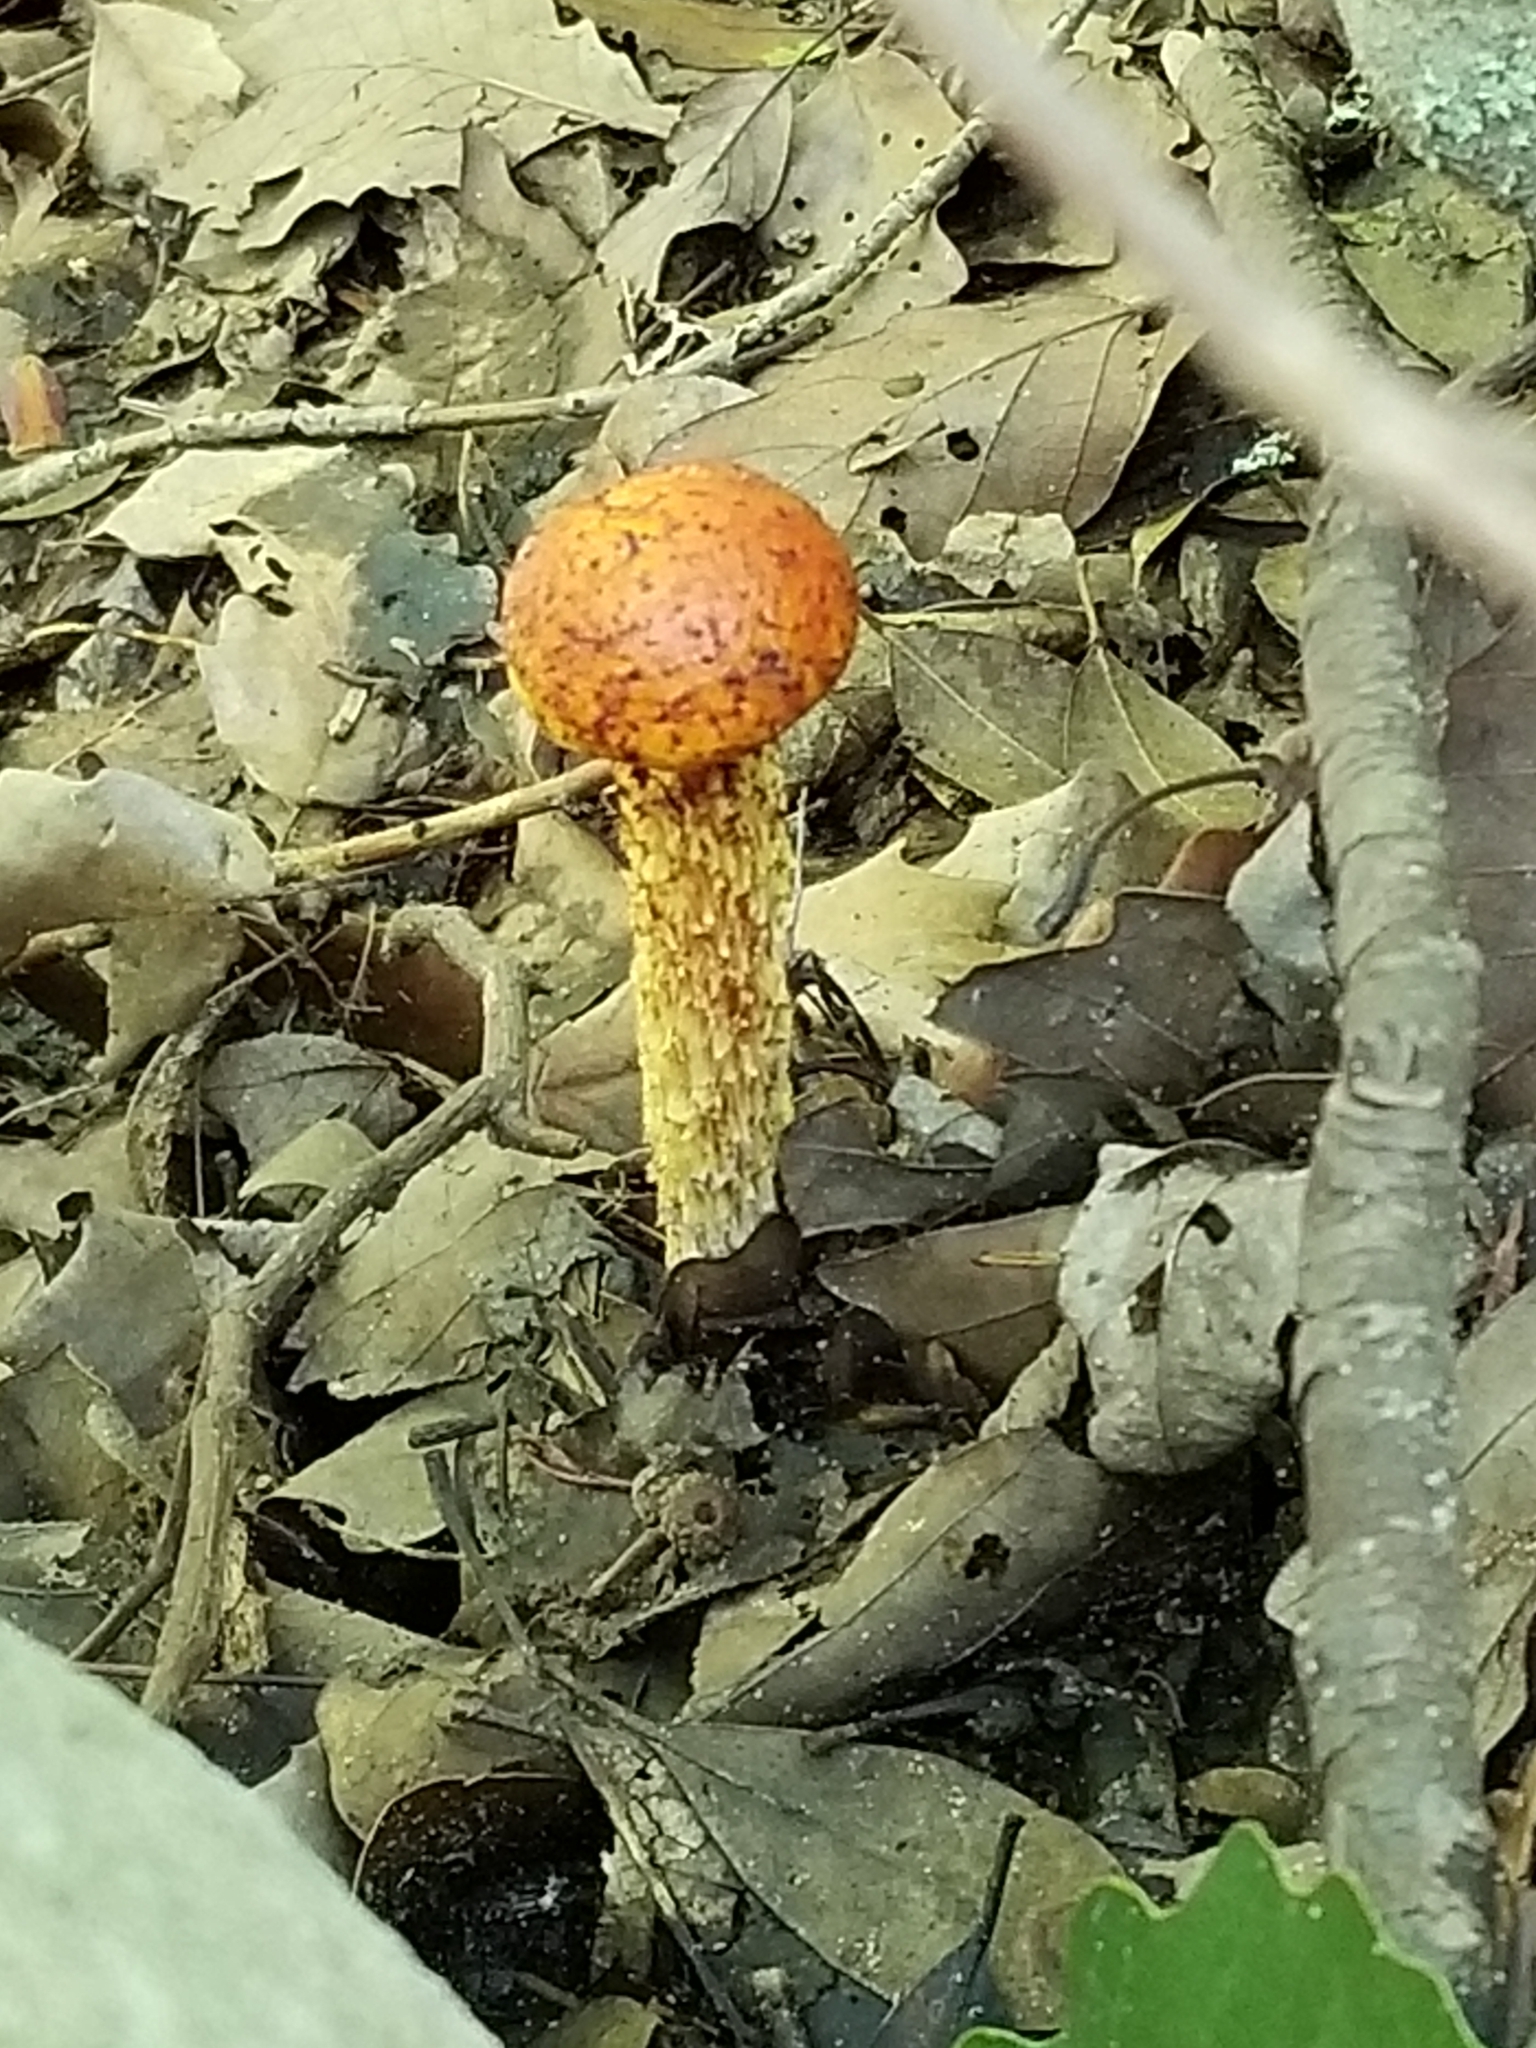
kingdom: Fungi
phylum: Basidiomycota
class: Agaricomycetes
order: Boletales
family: Boletaceae
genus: Aureoboletus
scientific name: Aureoboletus betula
